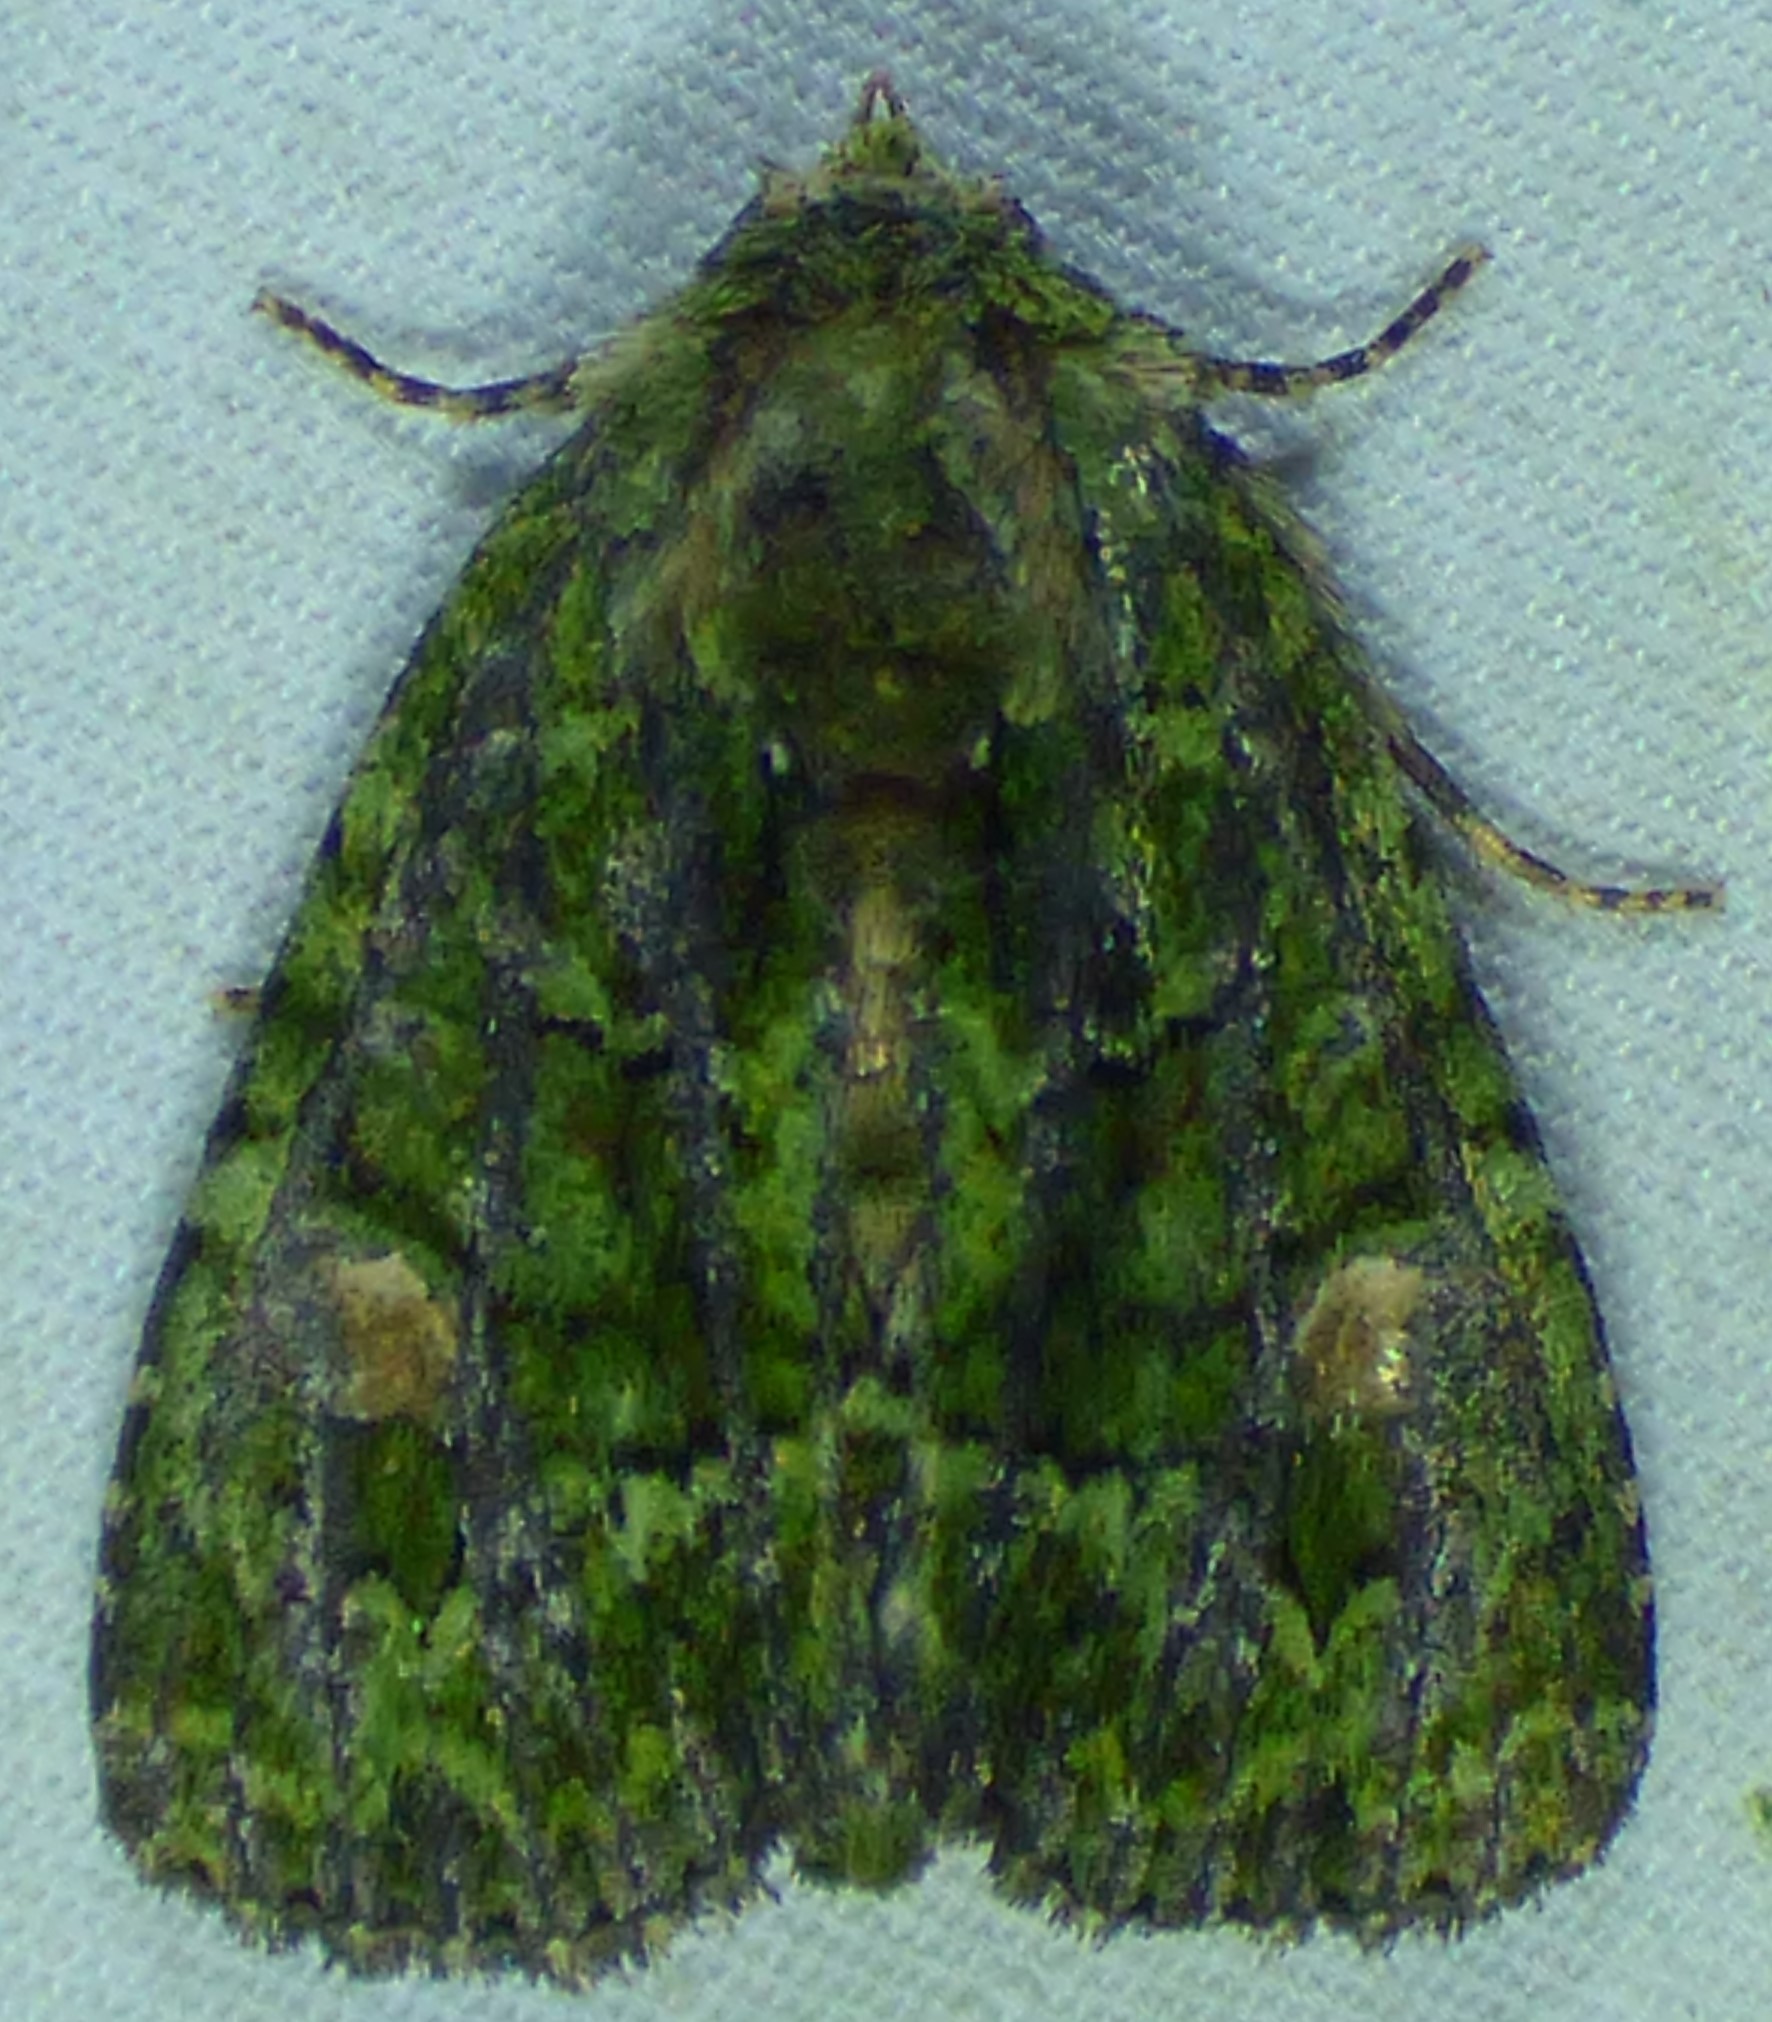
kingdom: Animalia
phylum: Arthropoda
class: Insecta
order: Lepidoptera
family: Noctuidae
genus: Phosphila
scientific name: Phosphila miselioides
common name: Spotted phosphila moth
